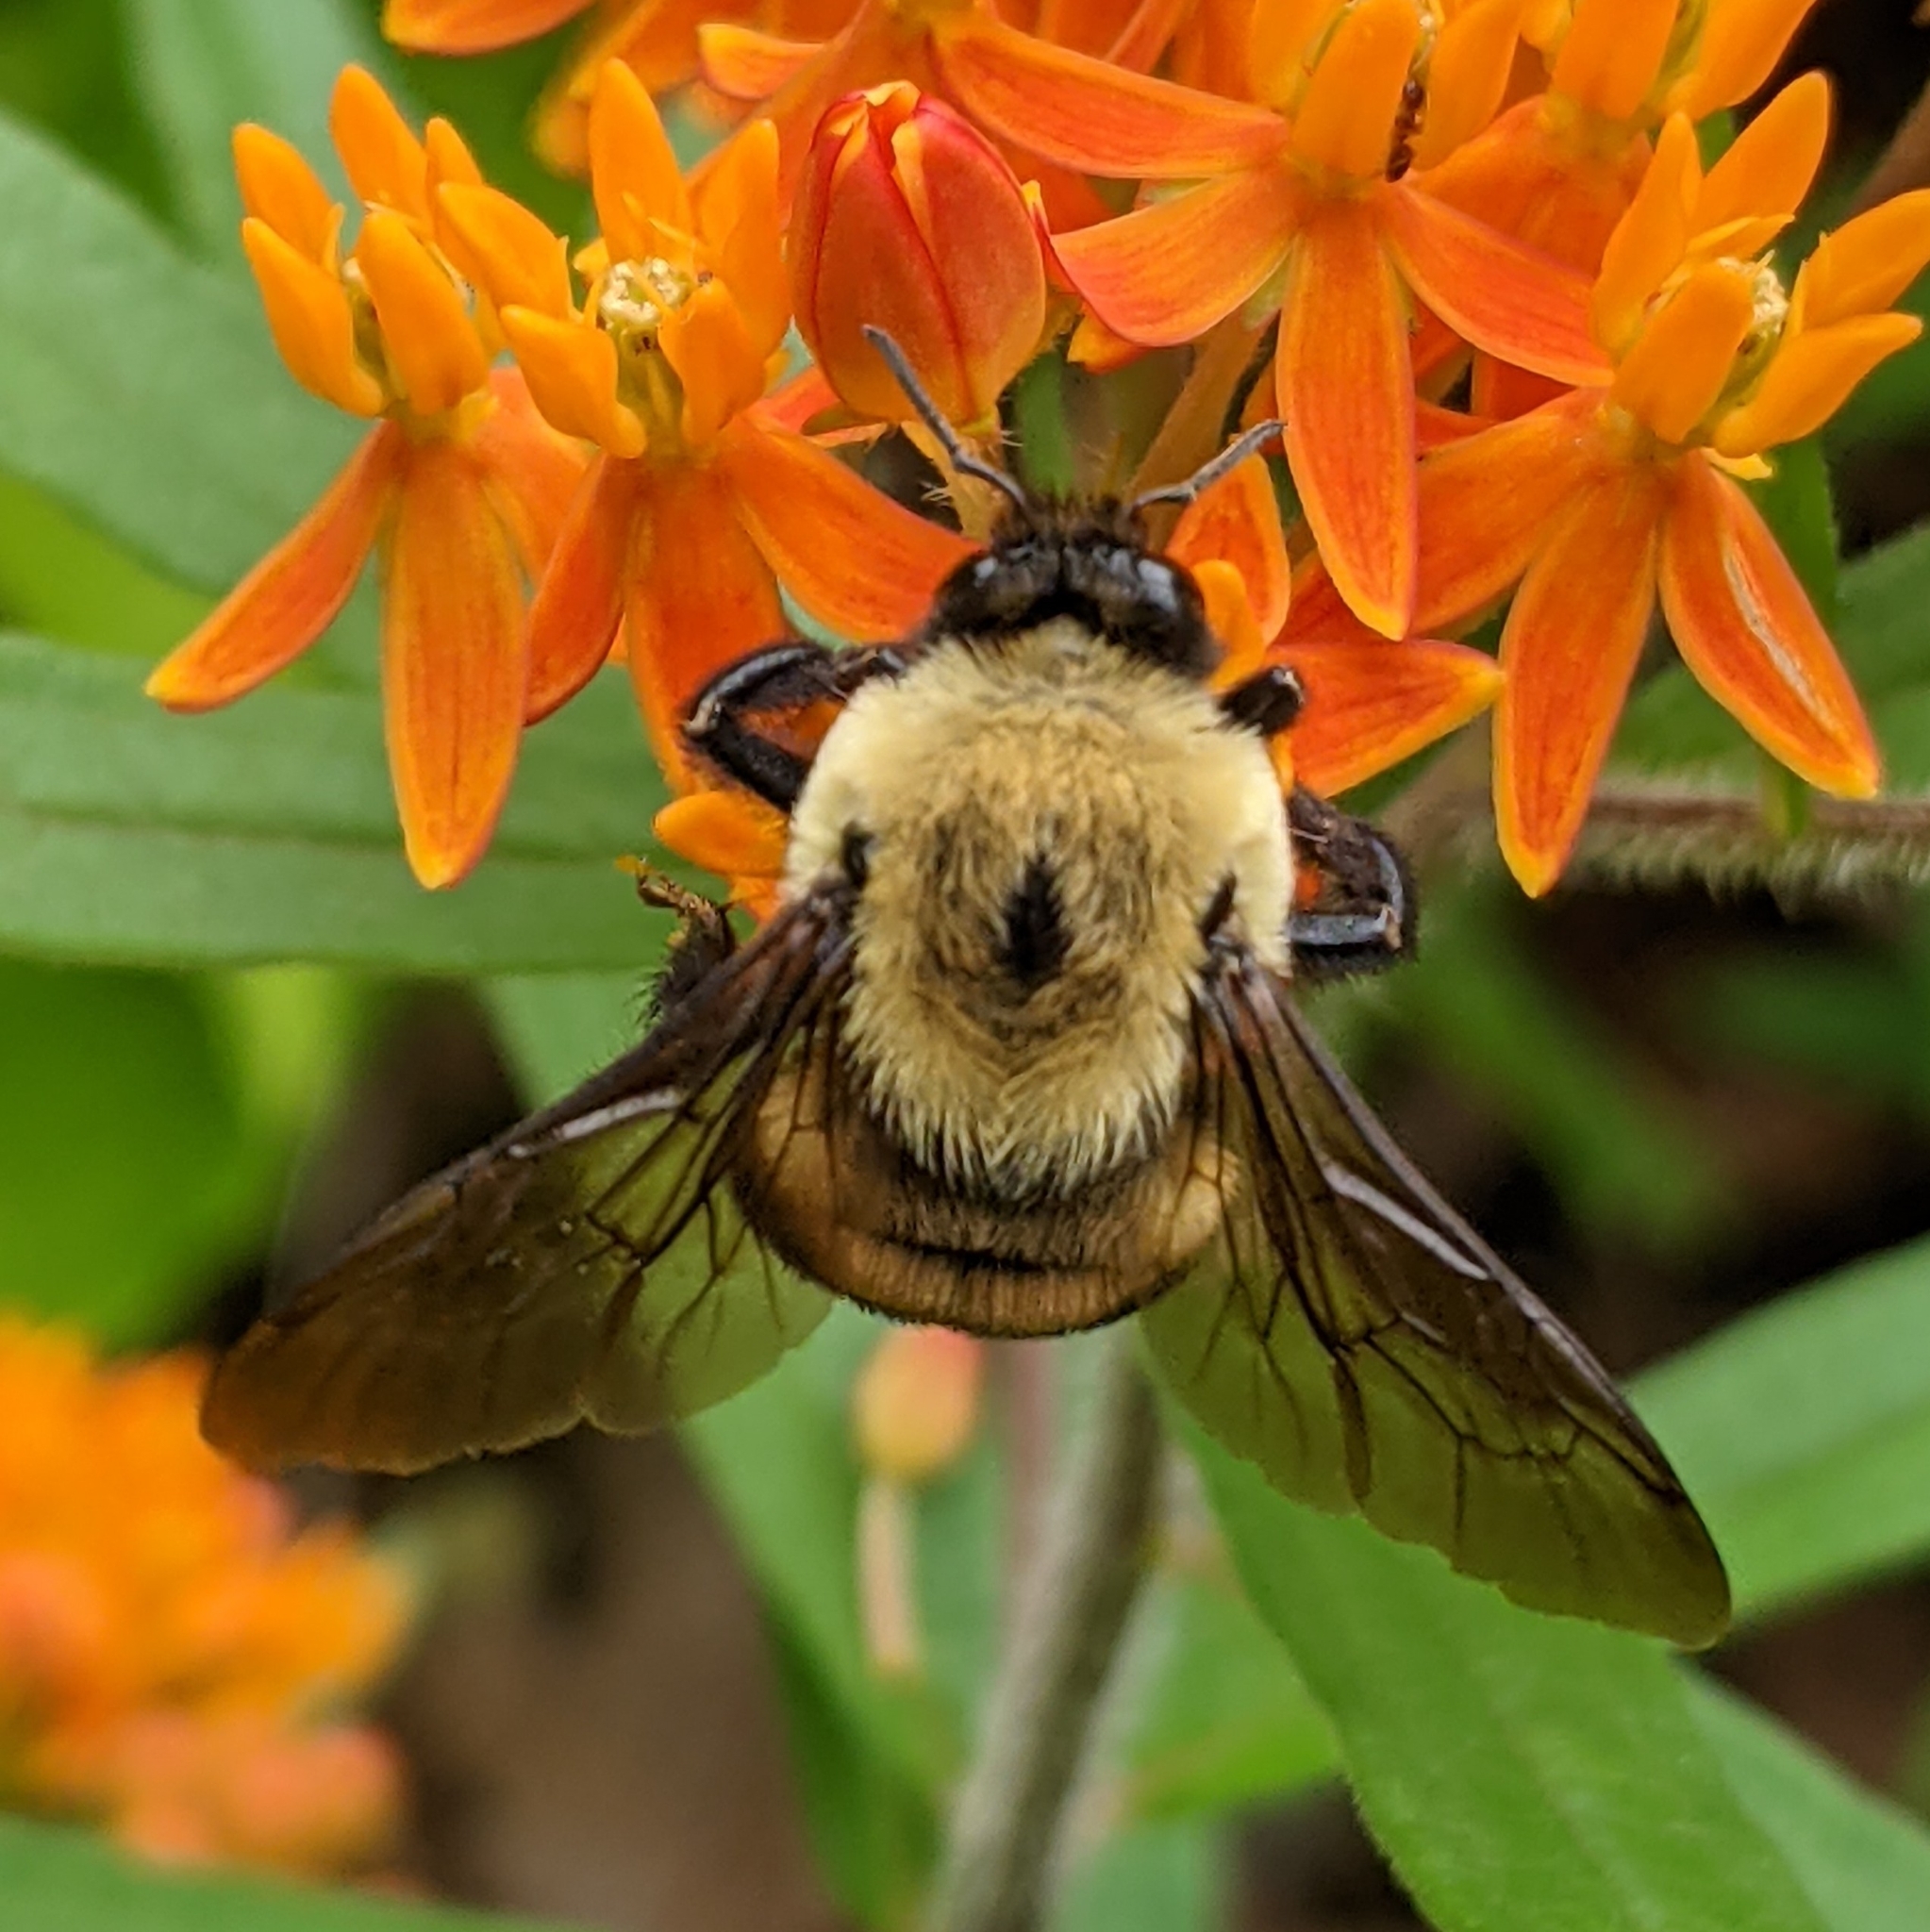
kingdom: Animalia
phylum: Arthropoda
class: Insecta
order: Hymenoptera
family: Apidae
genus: Bombus
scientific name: Bombus griseocollis
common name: Brown-belted bumble bee
